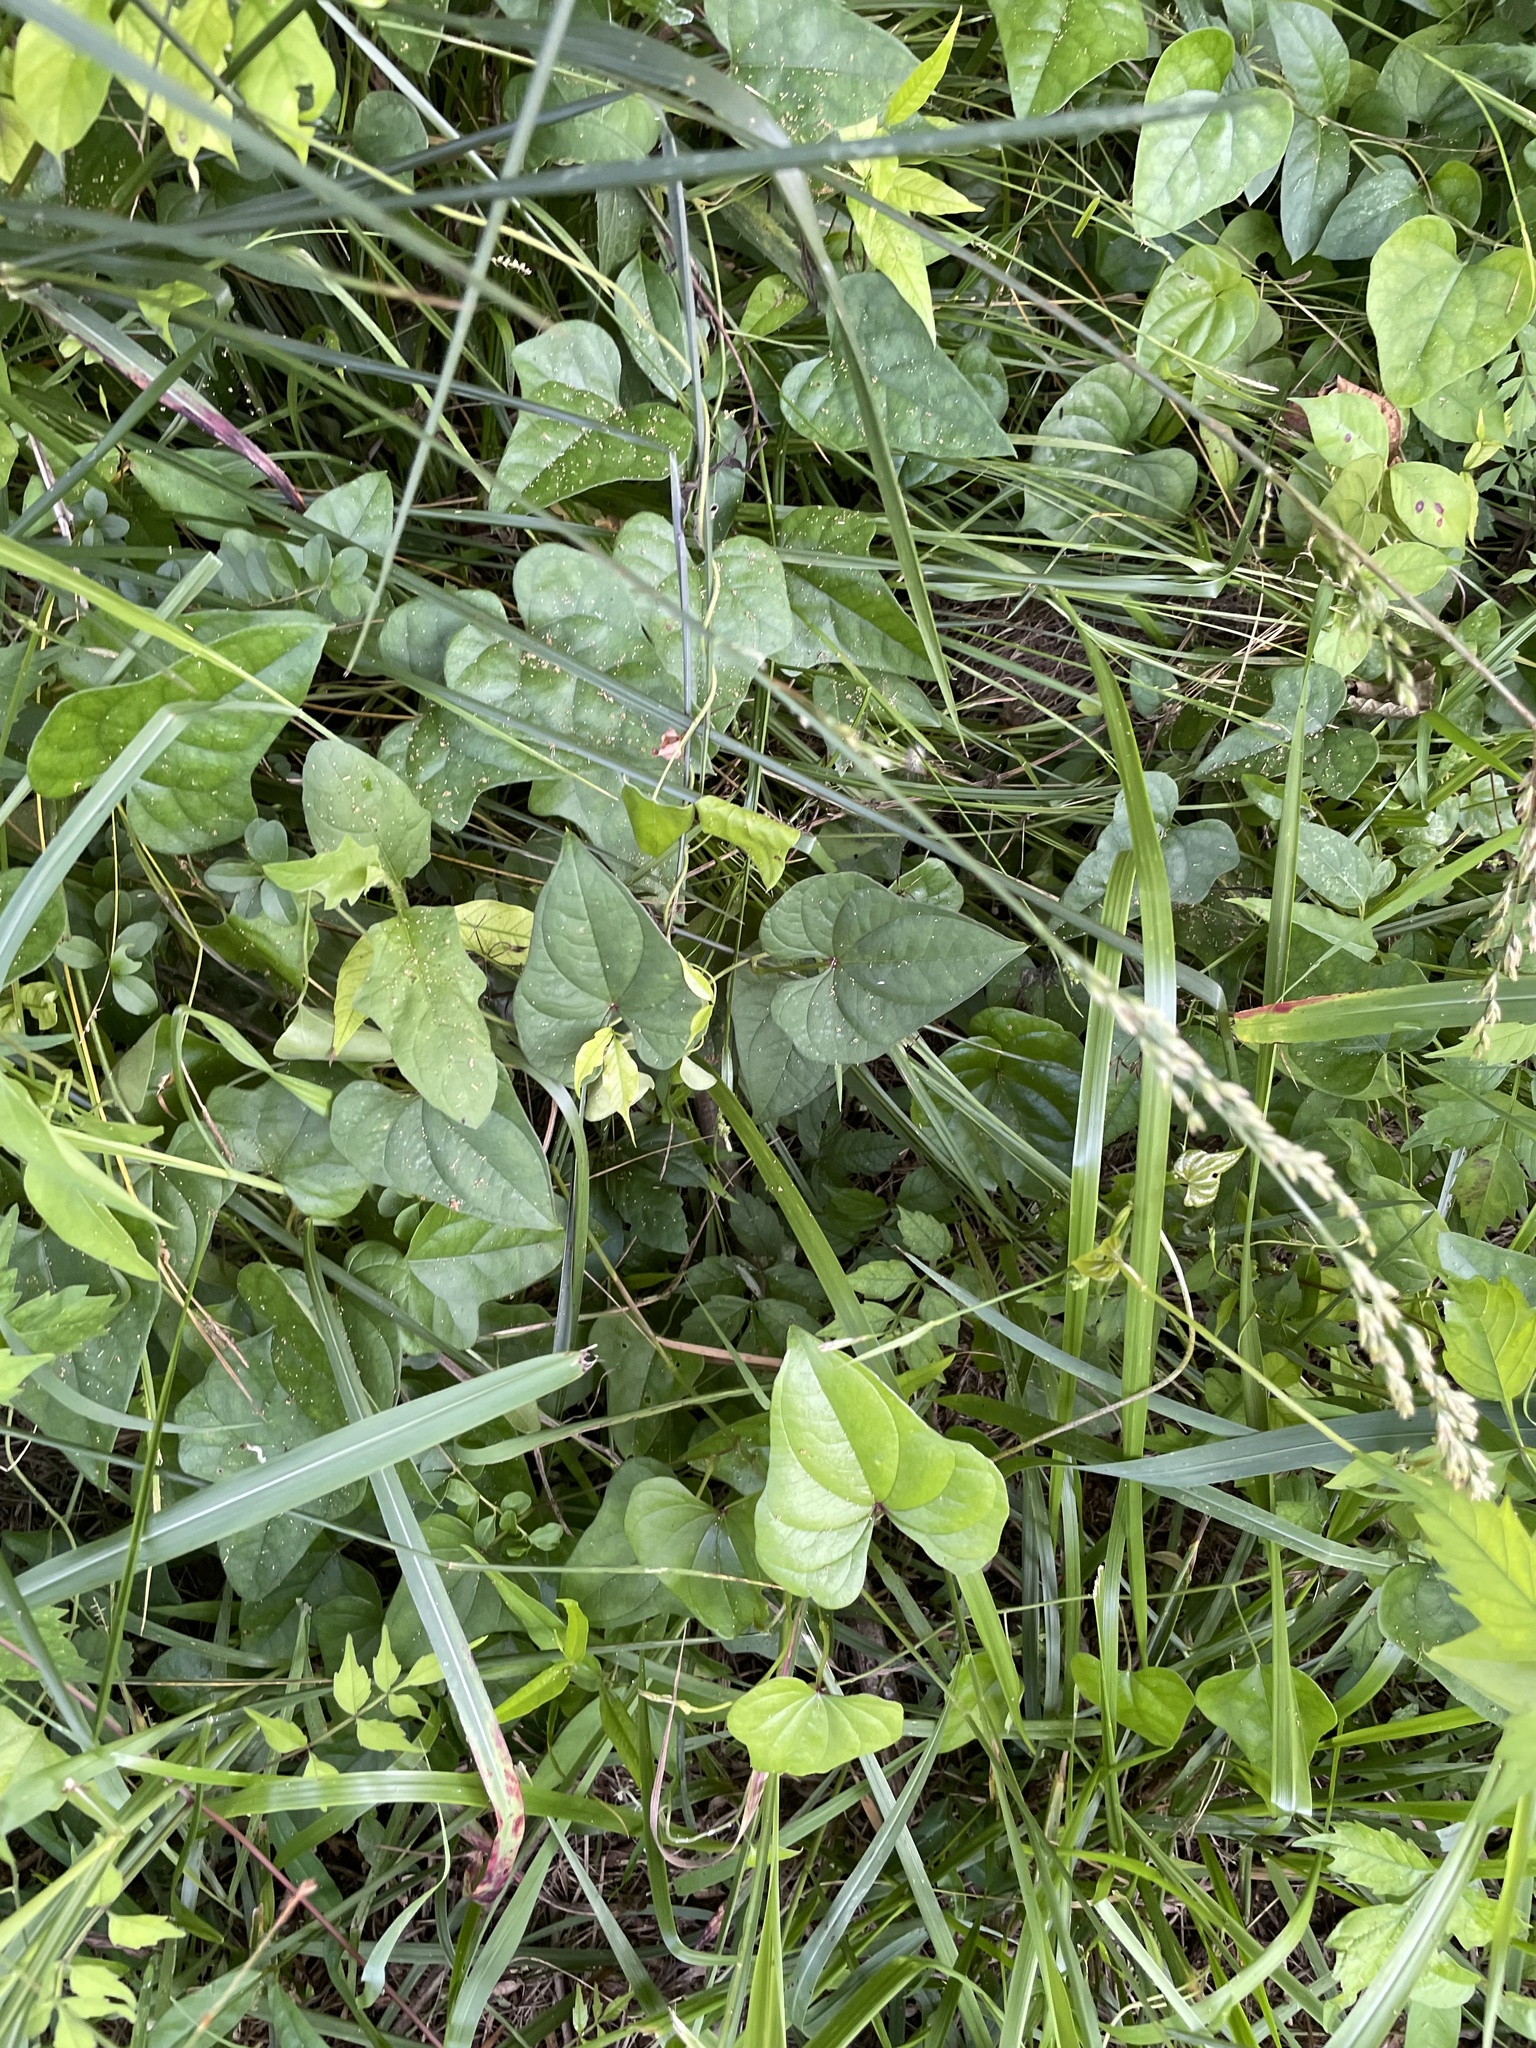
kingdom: Plantae
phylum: Tracheophyta
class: Liliopsida
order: Dioscoreales
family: Dioscoreaceae
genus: Dioscorea
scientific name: Dioscorea polystachya
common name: Chinese yam
